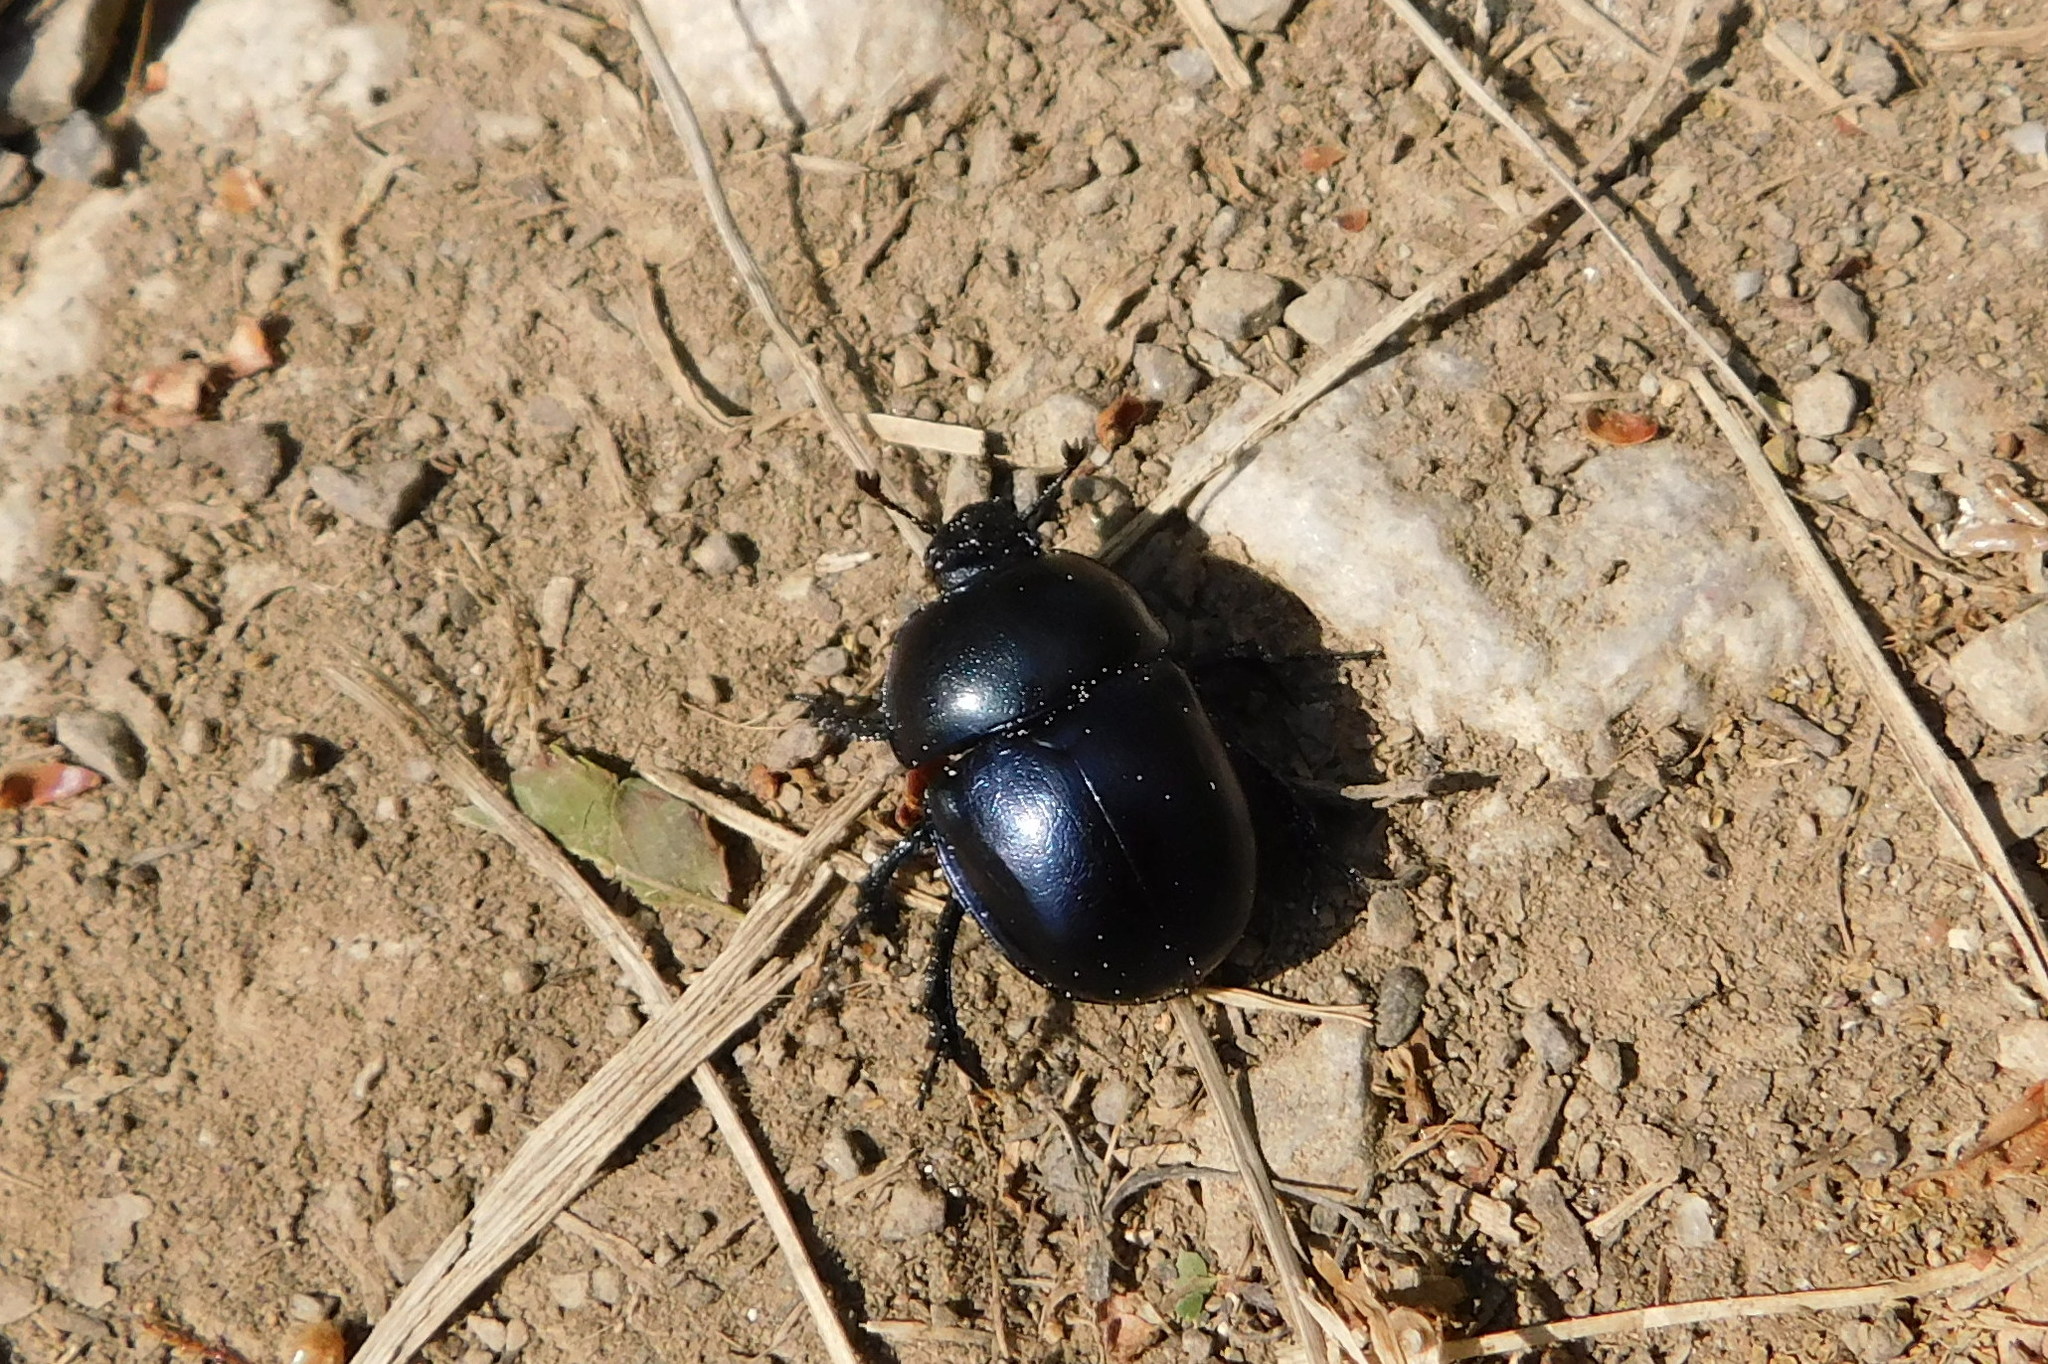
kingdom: Animalia
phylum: Arthropoda
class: Insecta
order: Coleoptera
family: Geotrupidae
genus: Trypocopris
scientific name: Trypocopris vernalis
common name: Spring dumbledor
